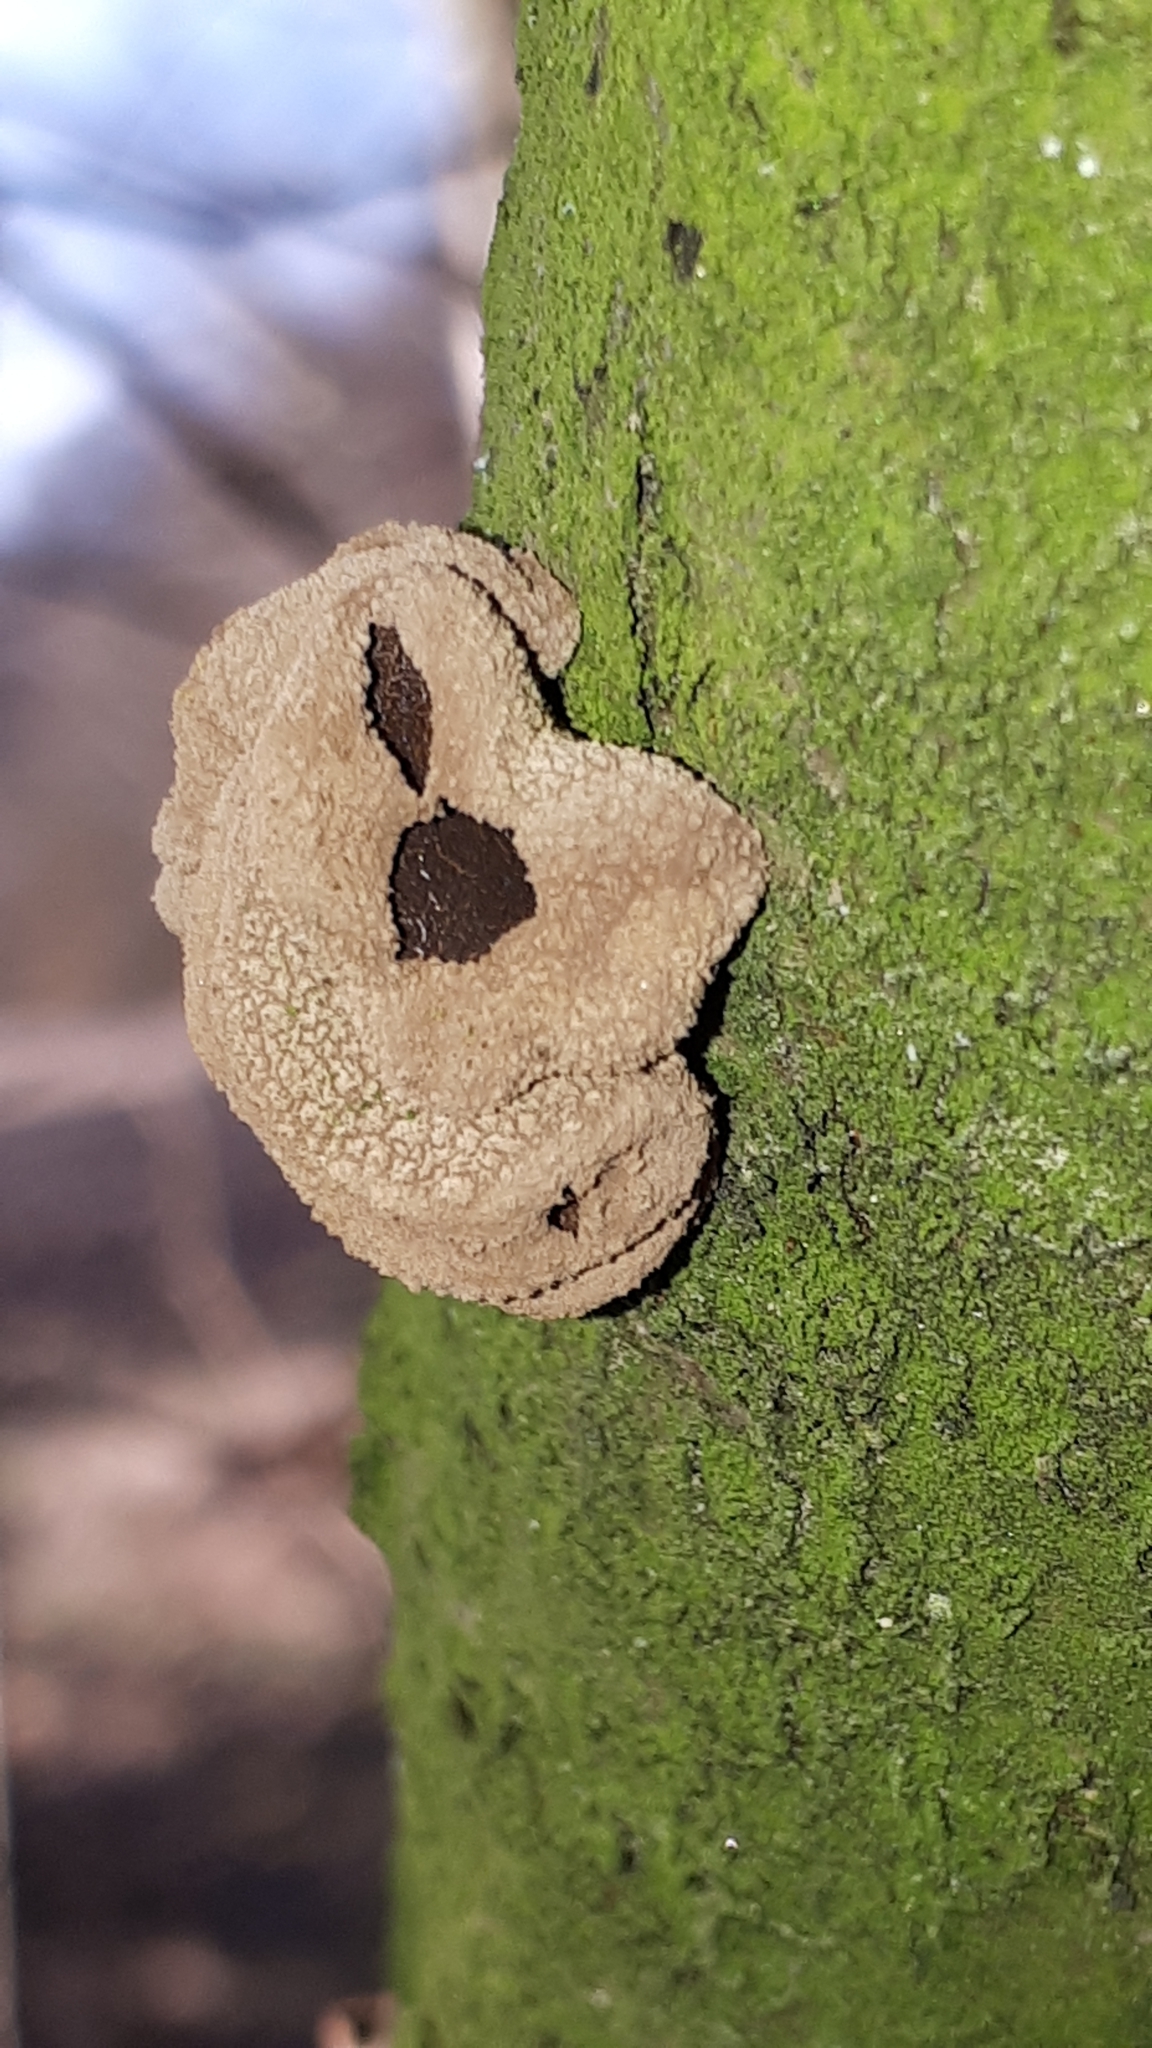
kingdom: Fungi
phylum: Ascomycota
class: Leotiomycetes
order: Helotiales
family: Cenangiaceae
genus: Encoelia
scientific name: Encoelia furfuracea
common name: Spring hazelcup
